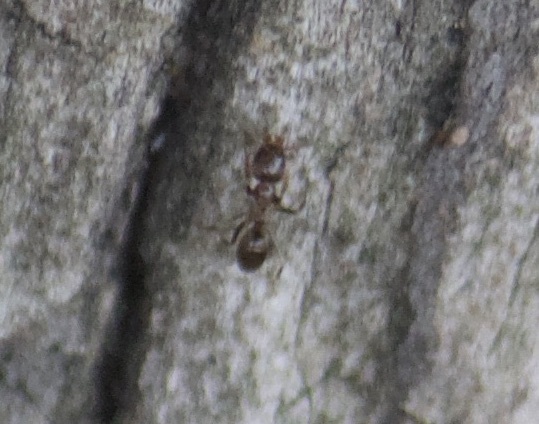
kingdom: Animalia
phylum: Arthropoda
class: Insecta
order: Hymenoptera
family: Formicidae
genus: Linepithema
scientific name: Linepithema humile
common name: Argentine ant
